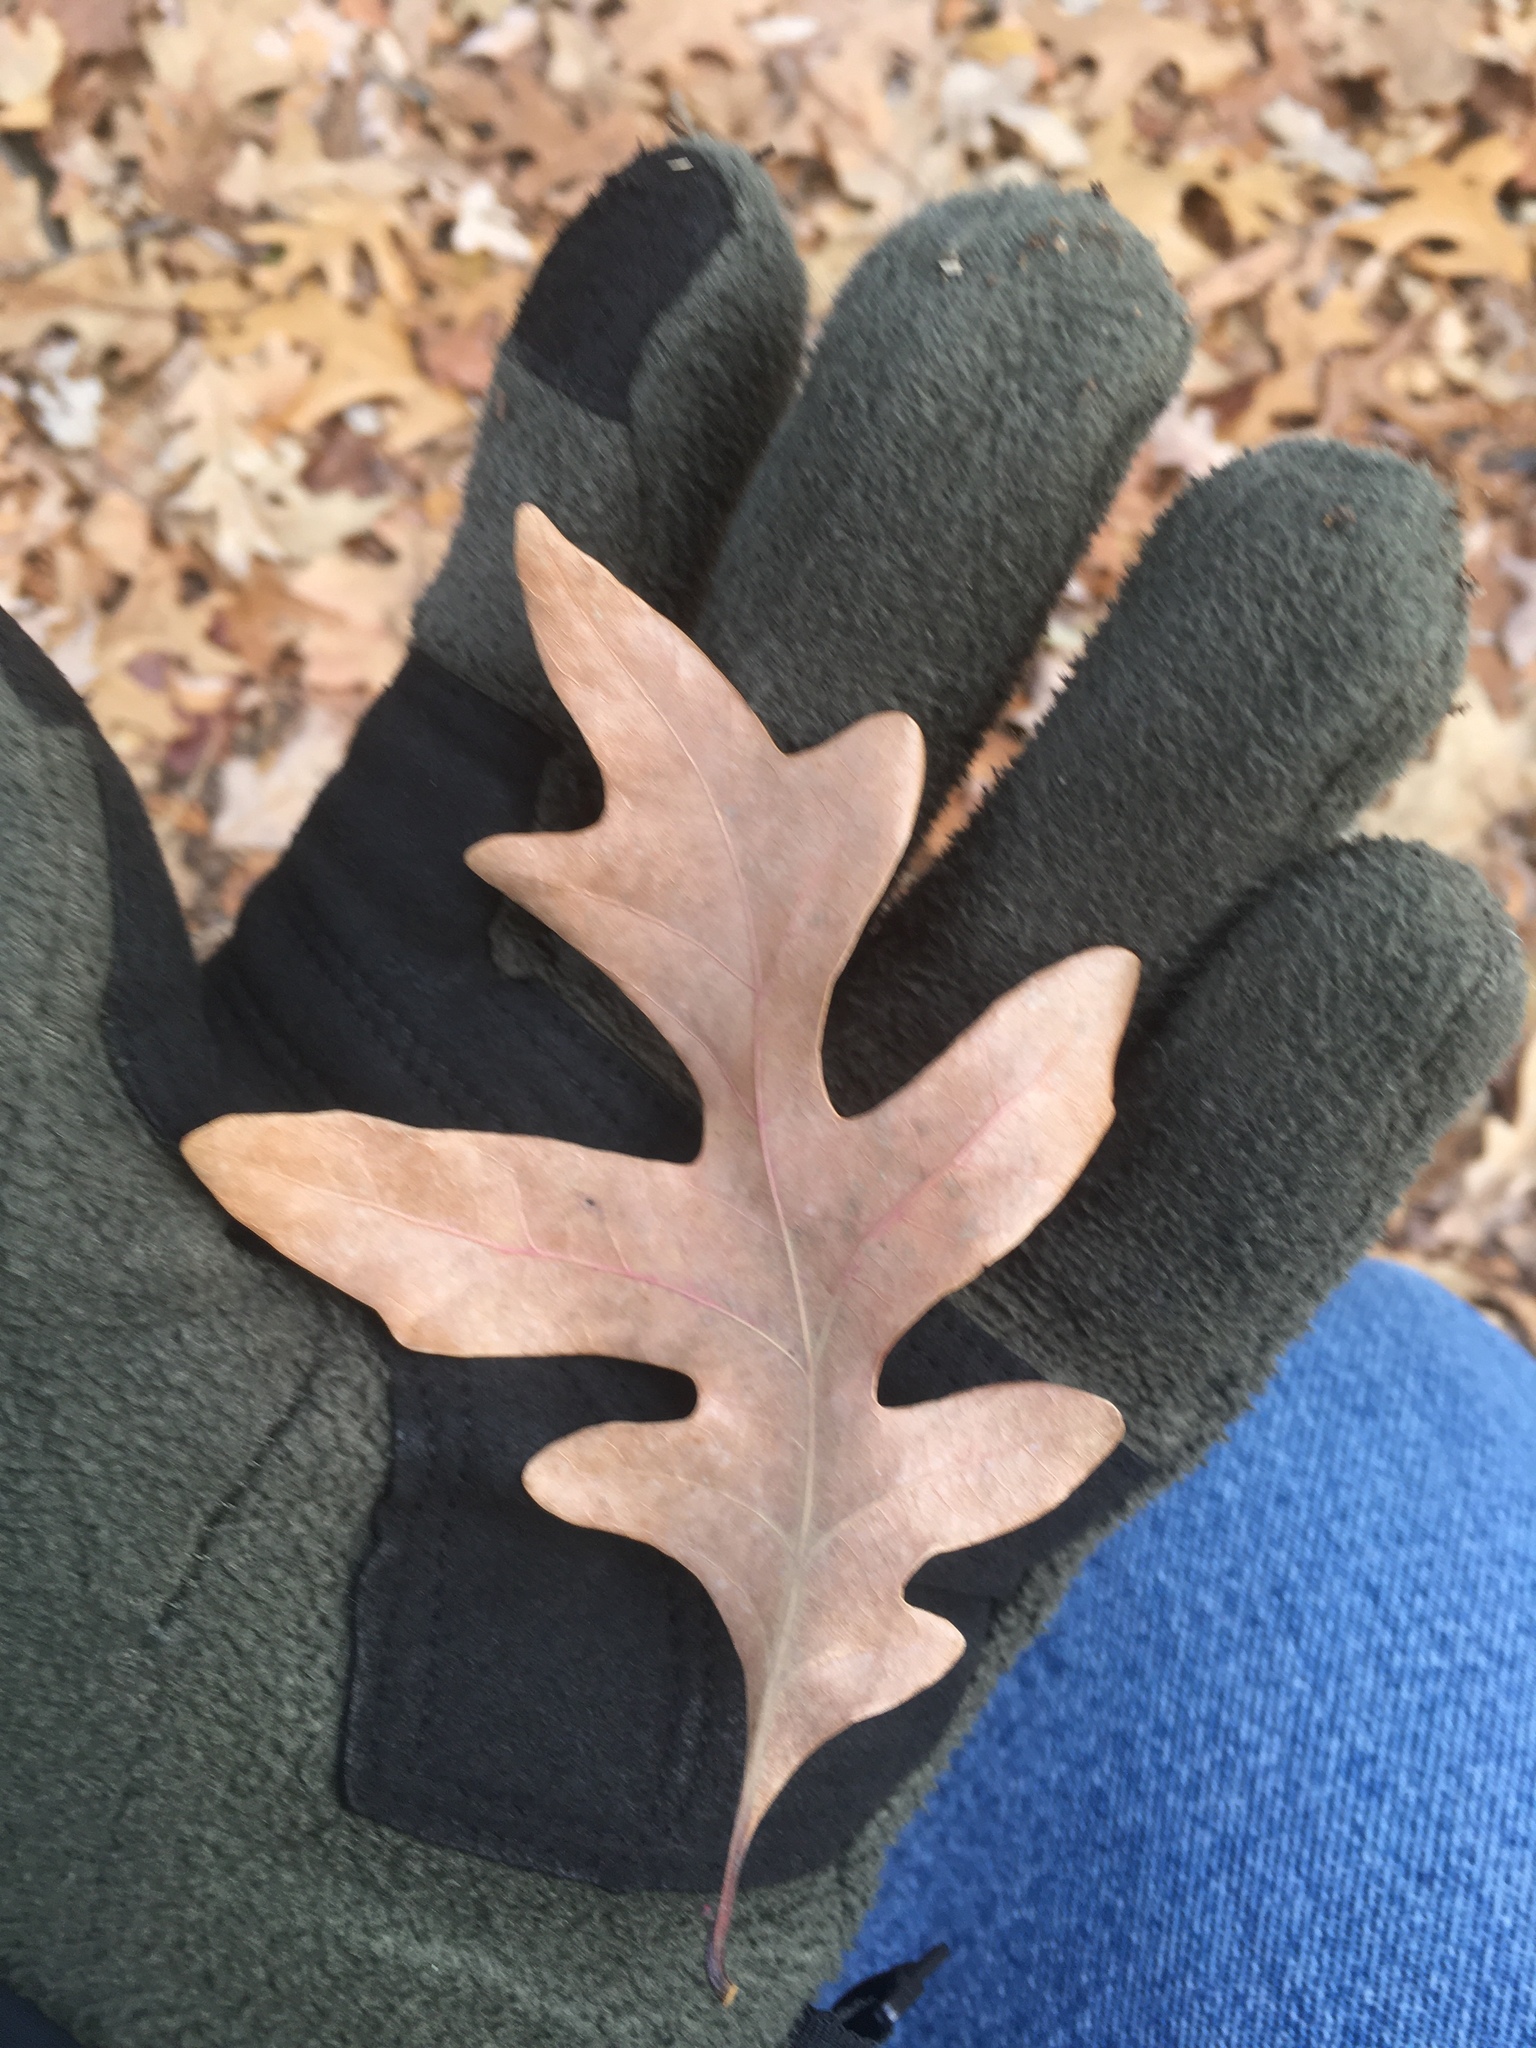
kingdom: Plantae
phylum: Tracheophyta
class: Magnoliopsida
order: Fagales
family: Fagaceae
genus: Quercus
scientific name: Quercus alba
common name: White oak
